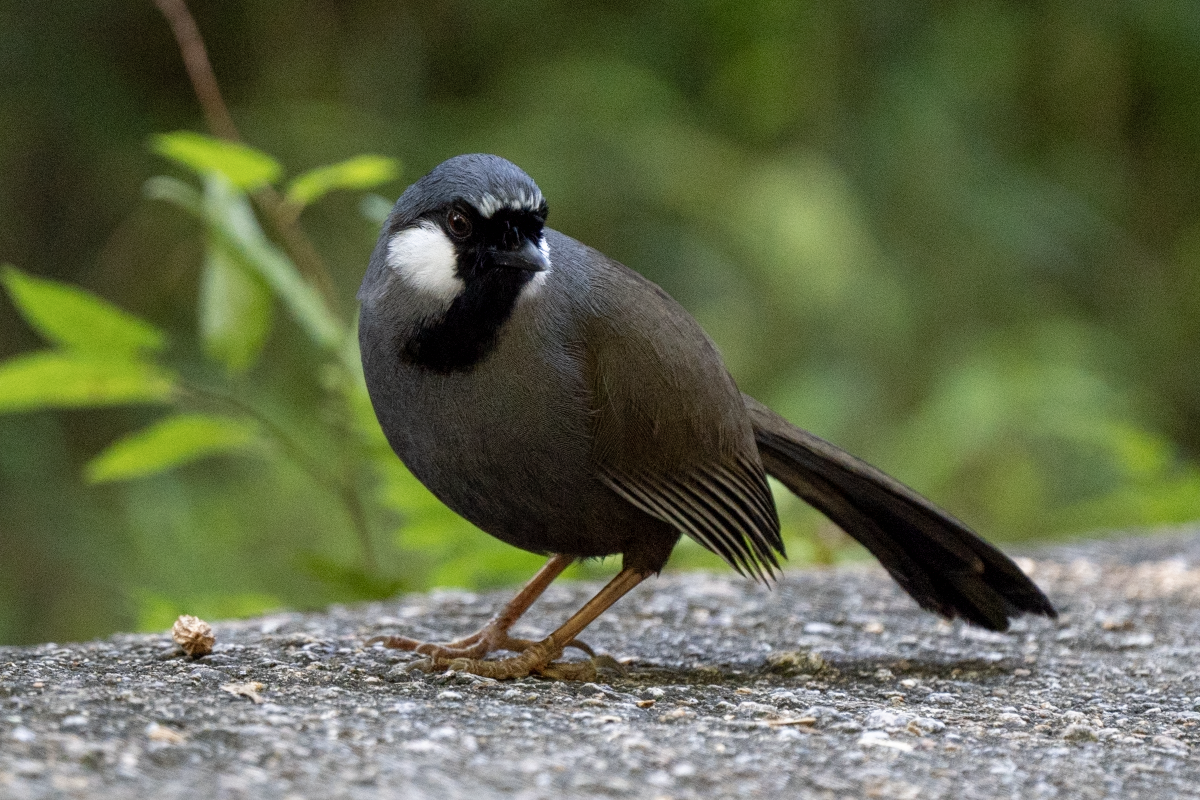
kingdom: Animalia
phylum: Chordata
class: Aves
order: Passeriformes
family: Leiothrichidae
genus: Garrulax
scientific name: Garrulax chinensis
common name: Black-throated laughingthrush
